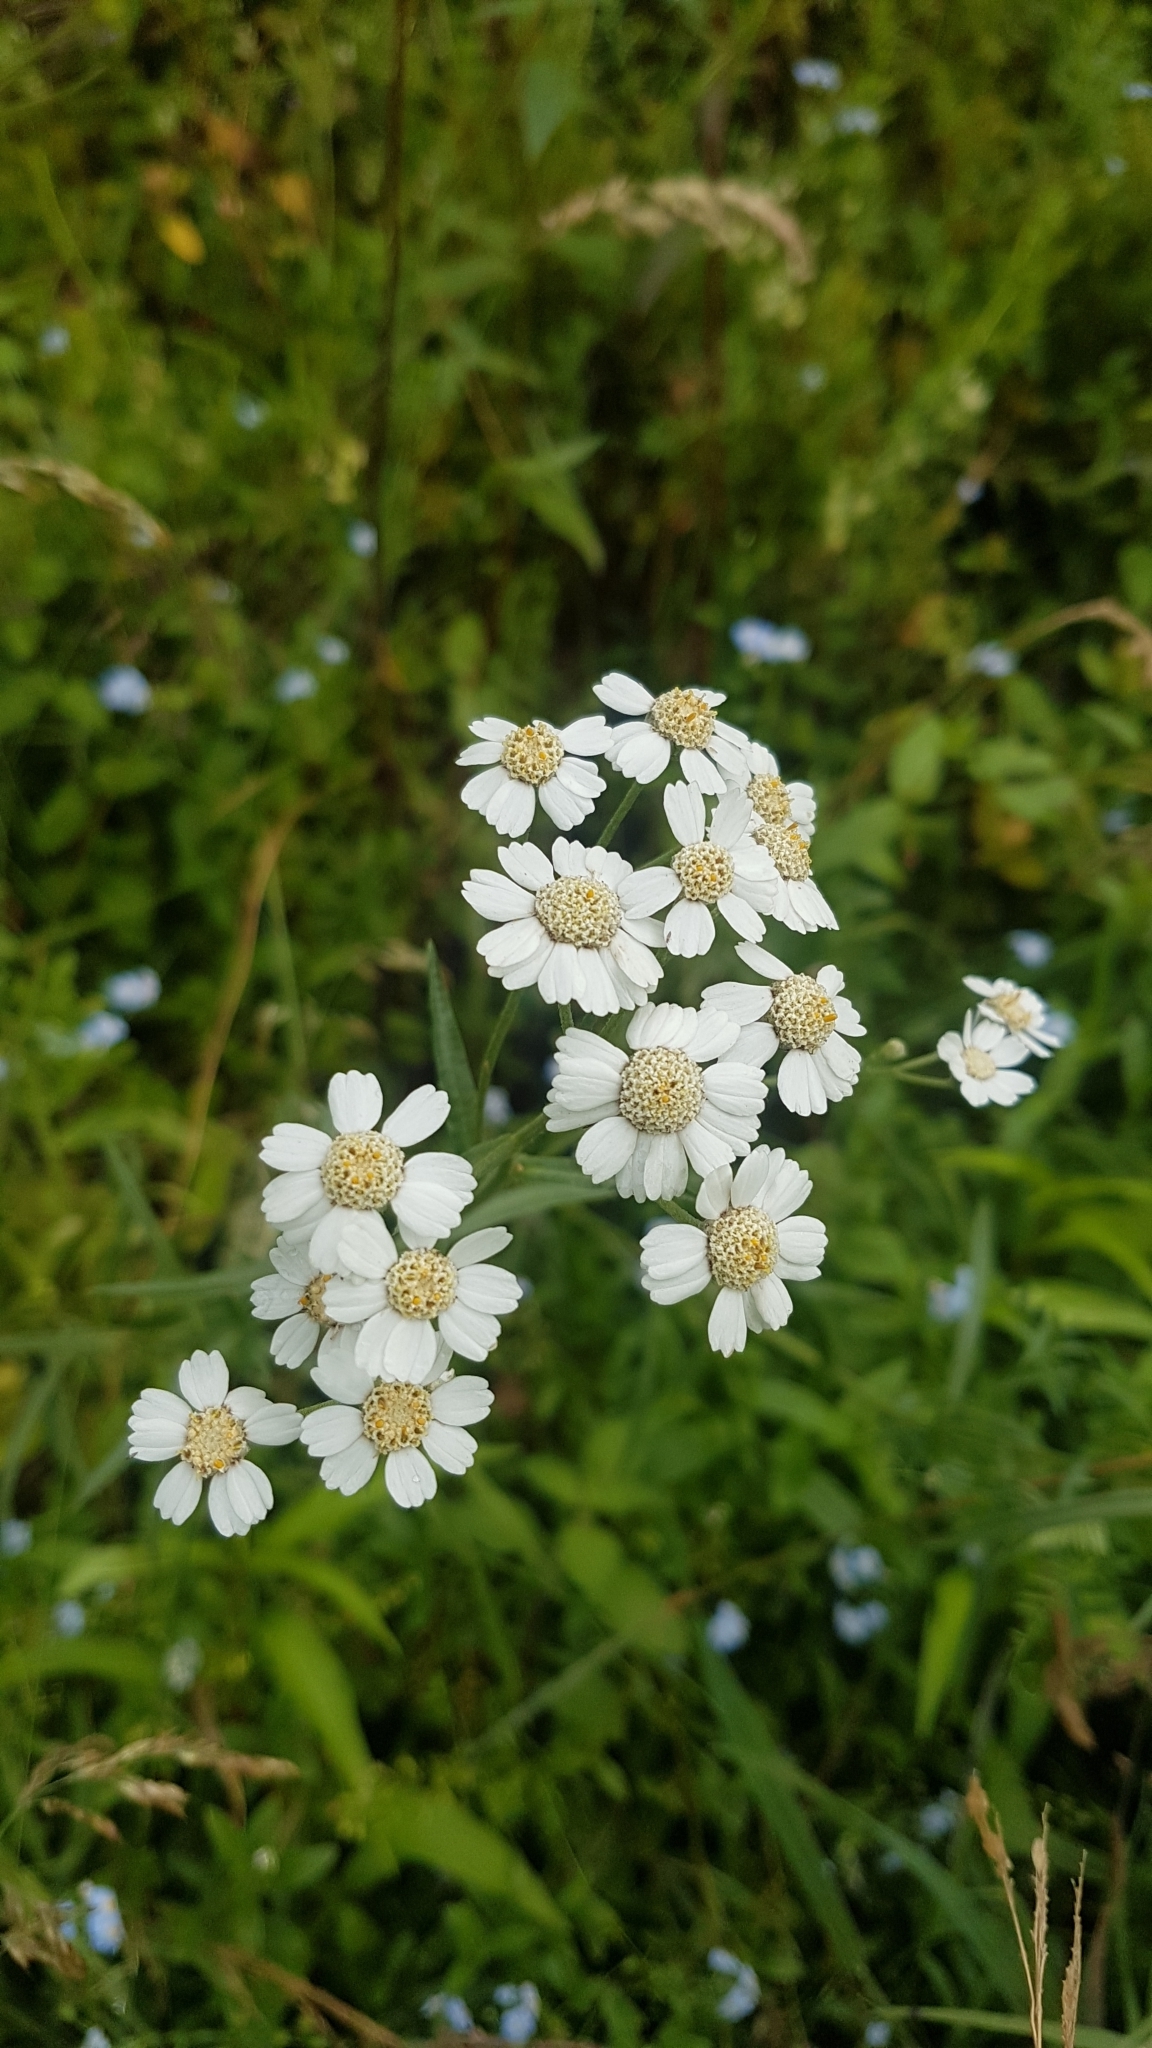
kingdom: Plantae
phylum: Tracheophyta
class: Magnoliopsida
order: Asterales
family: Asteraceae
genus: Achillea
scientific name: Achillea ptarmica
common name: Sneezeweed
